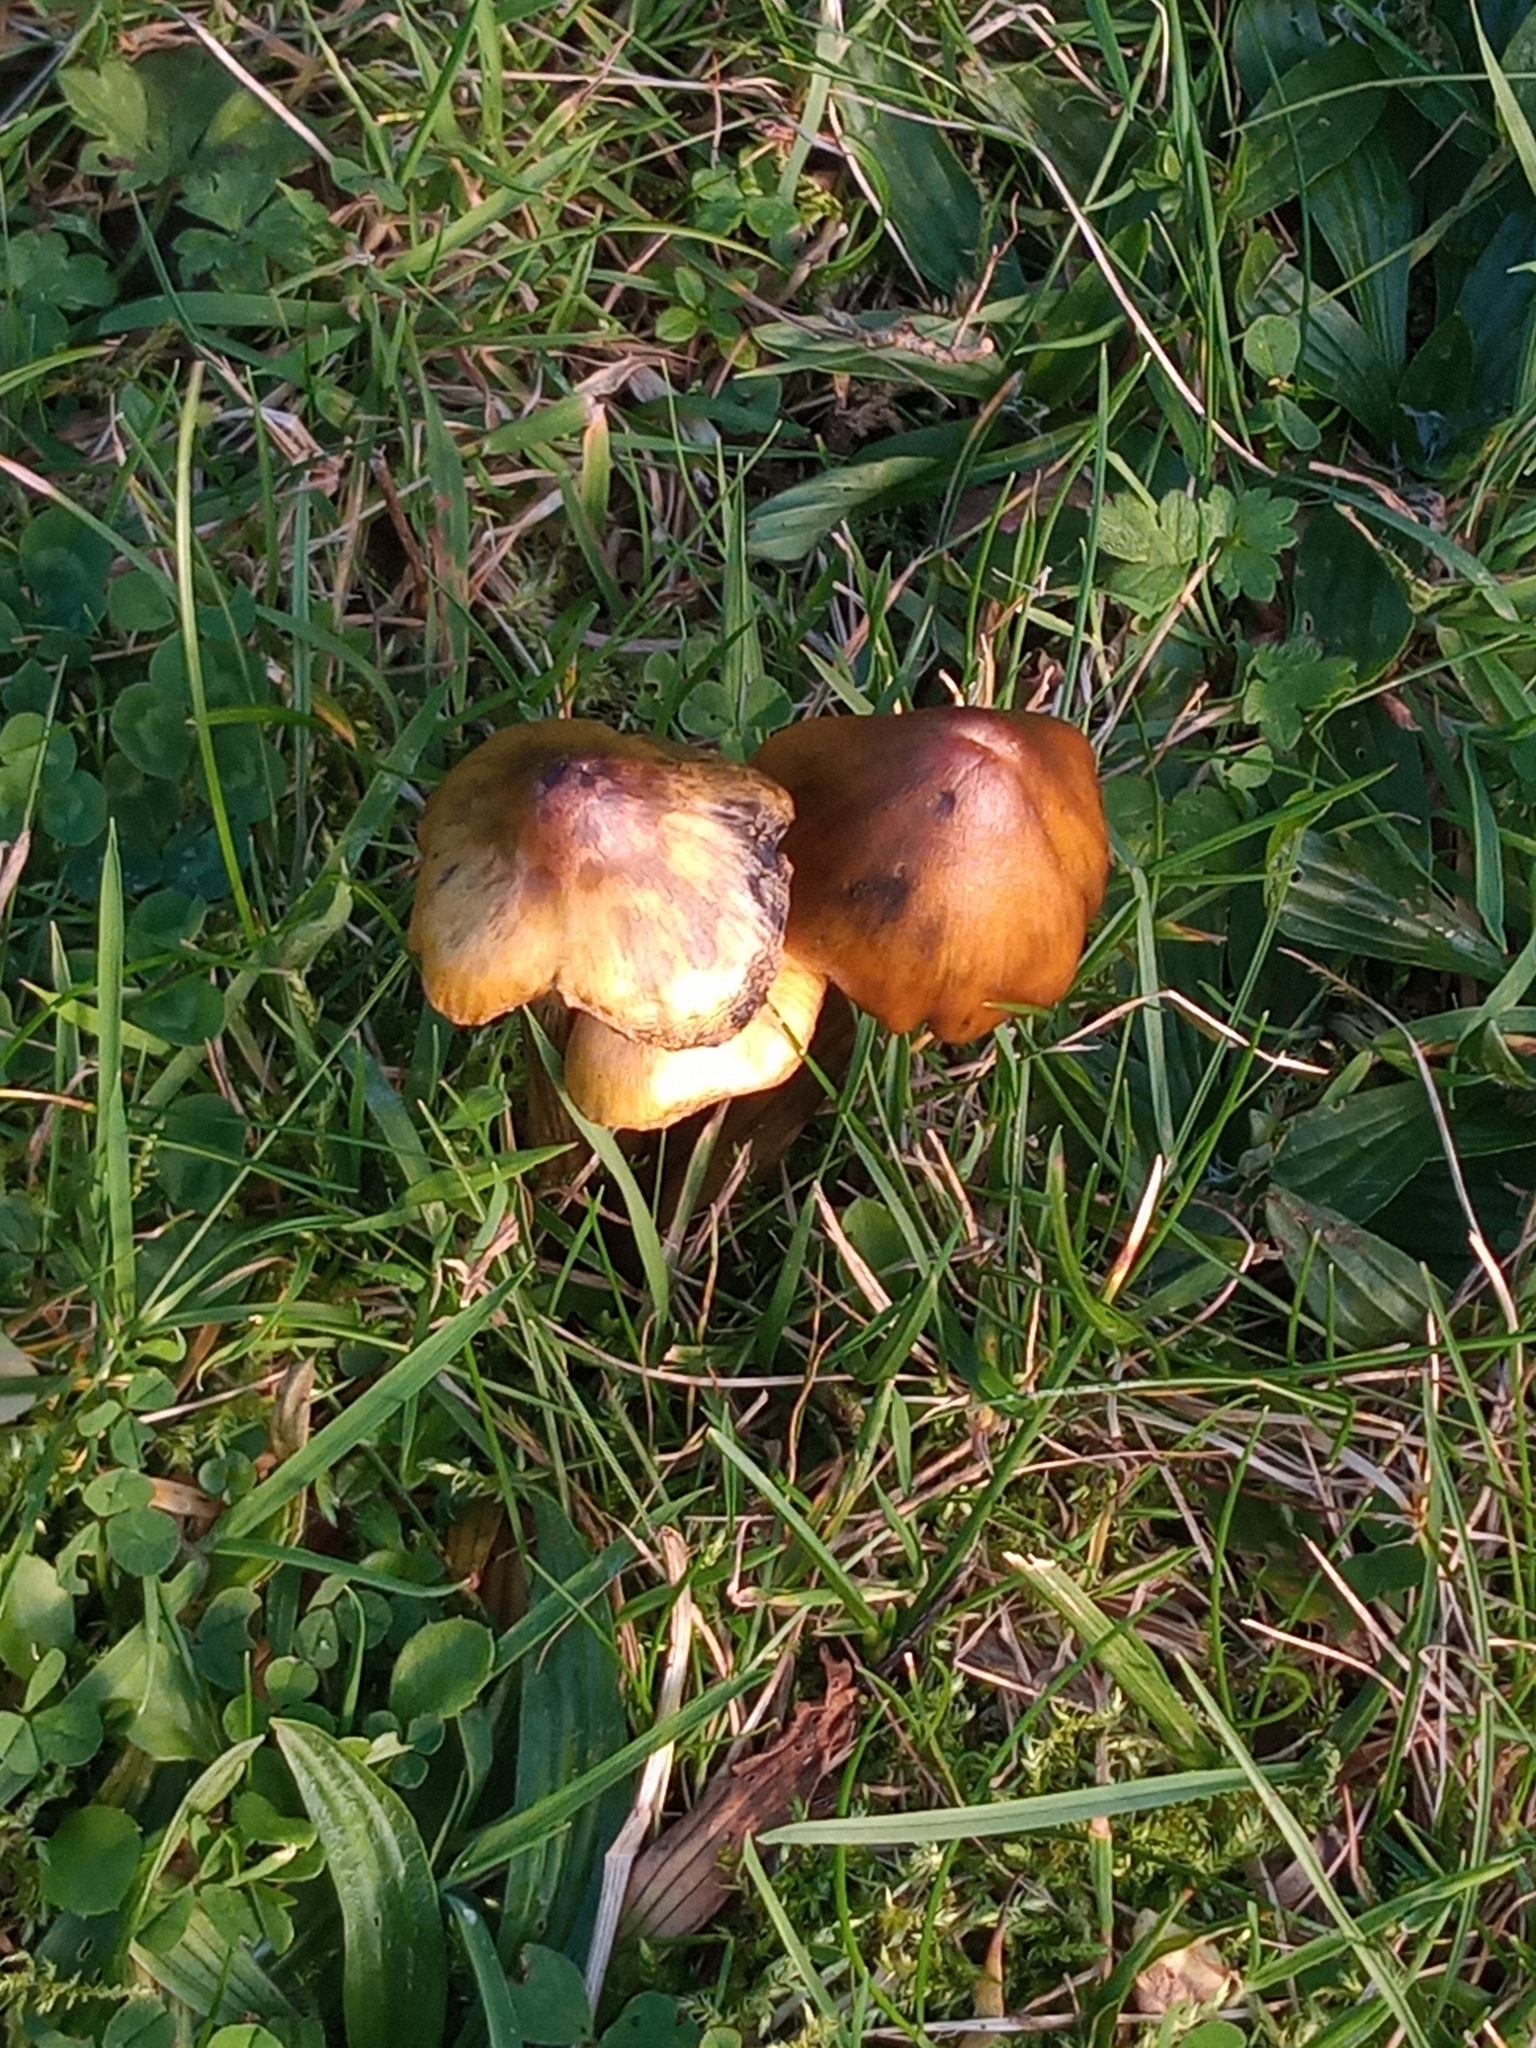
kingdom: Fungi
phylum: Basidiomycota
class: Agaricomycetes
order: Agaricales
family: Hygrophoraceae
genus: Hygrocybe
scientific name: Hygrocybe conica
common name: Blackening wax-cap
